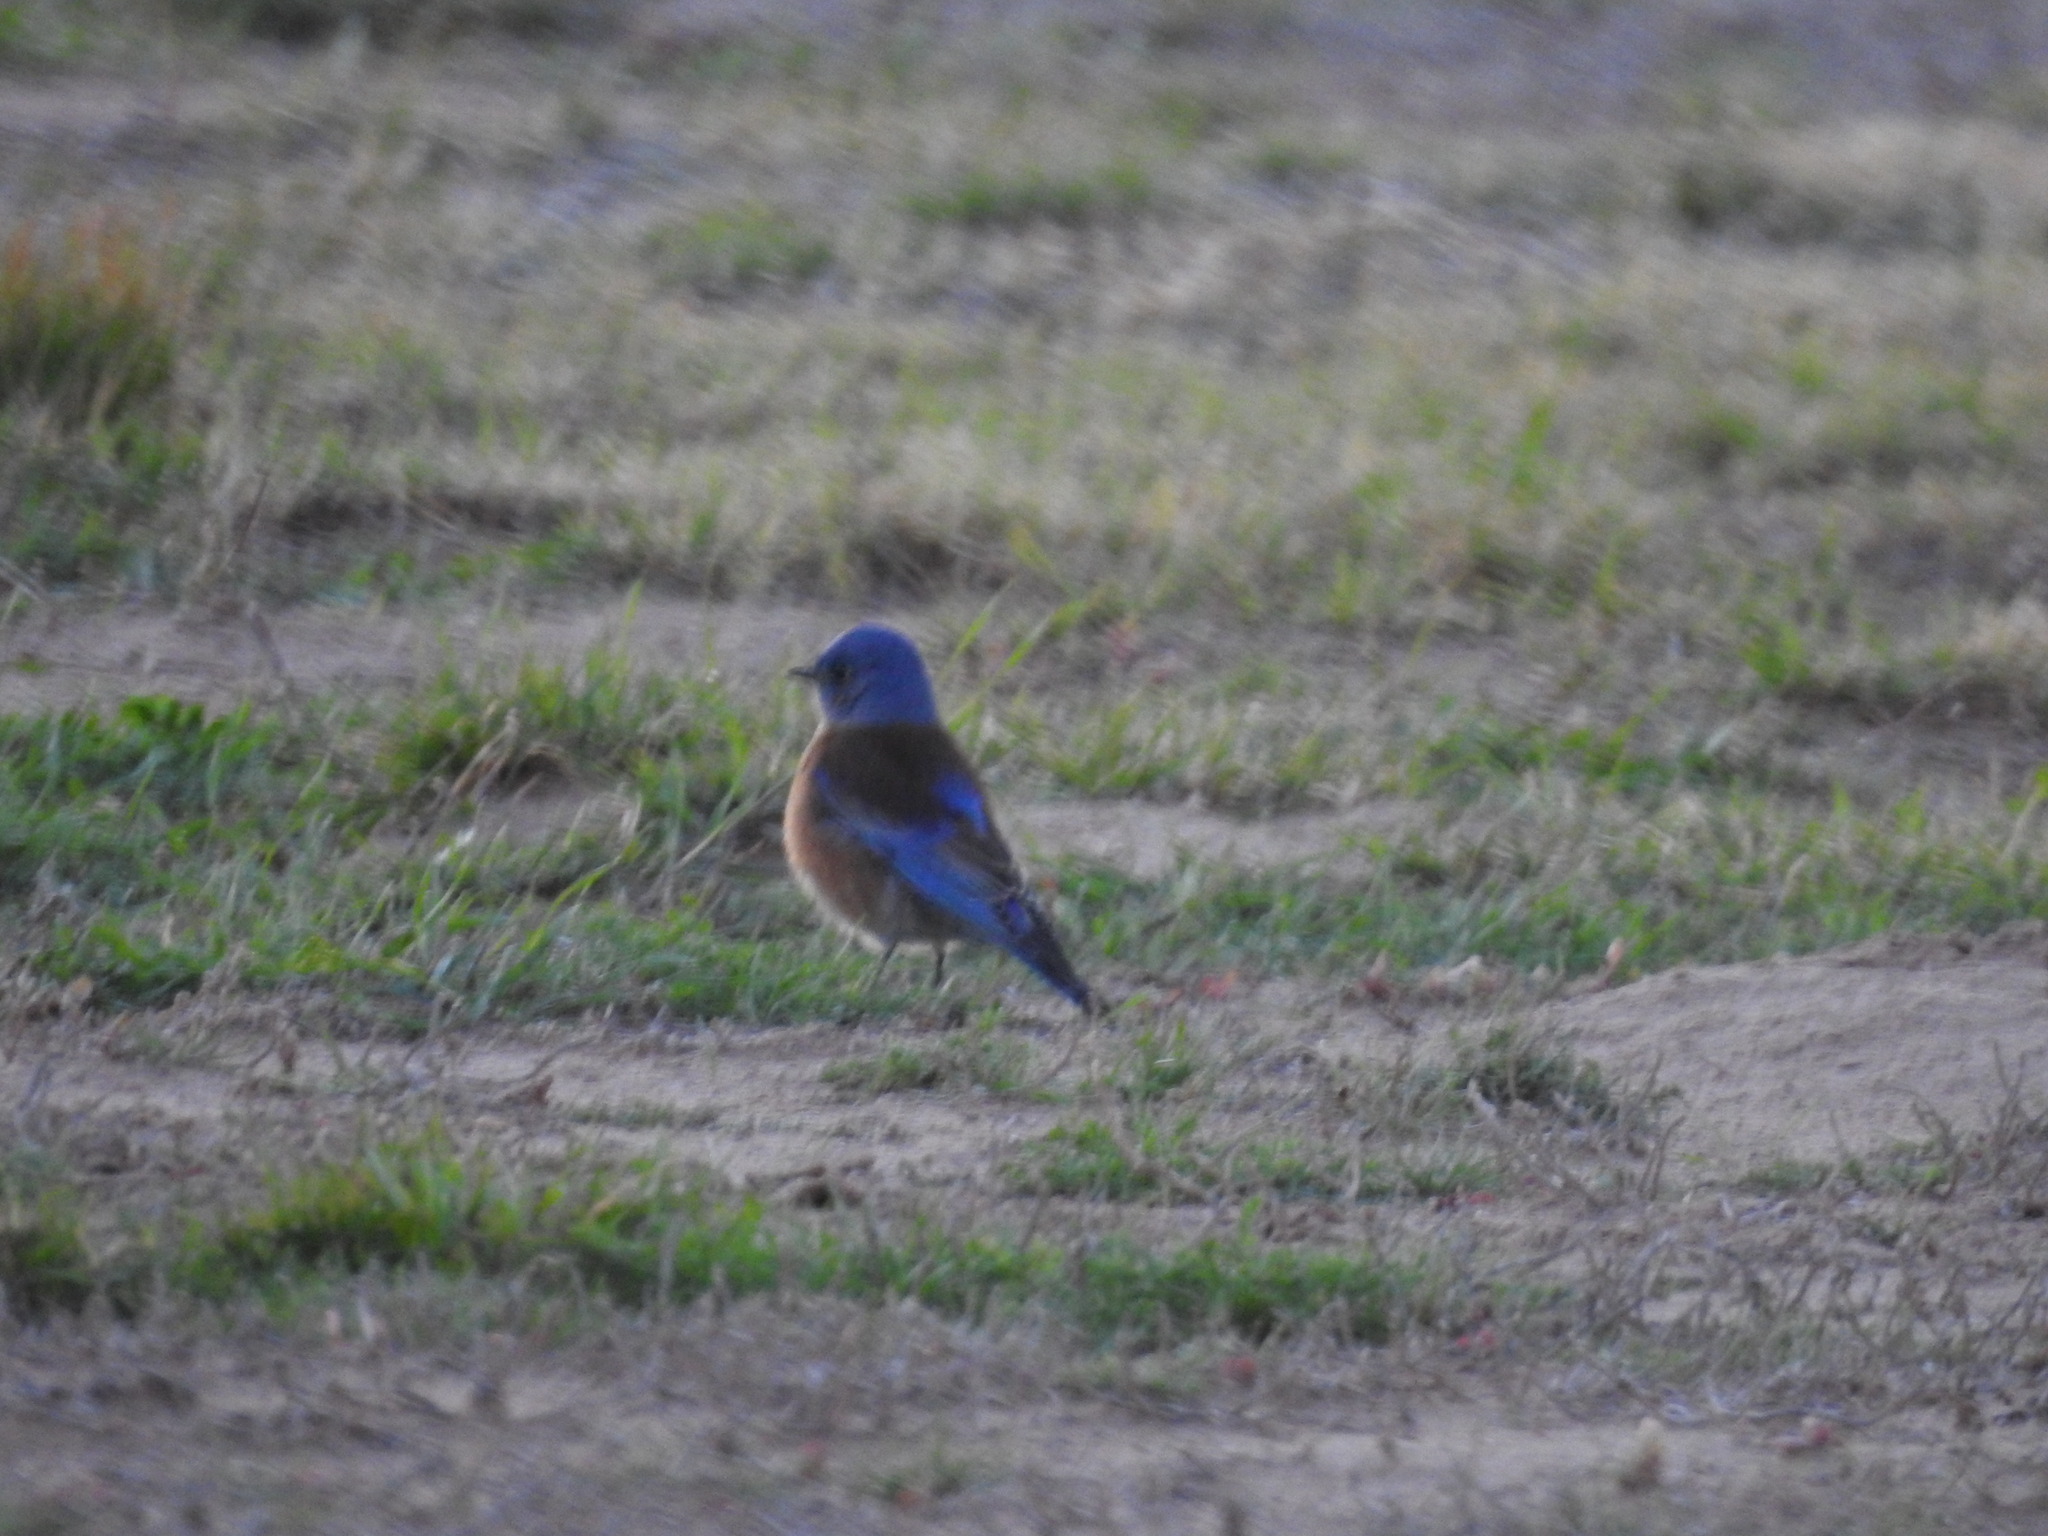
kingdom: Animalia
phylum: Chordata
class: Aves
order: Passeriformes
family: Turdidae
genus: Sialia
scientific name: Sialia mexicana
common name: Western bluebird
